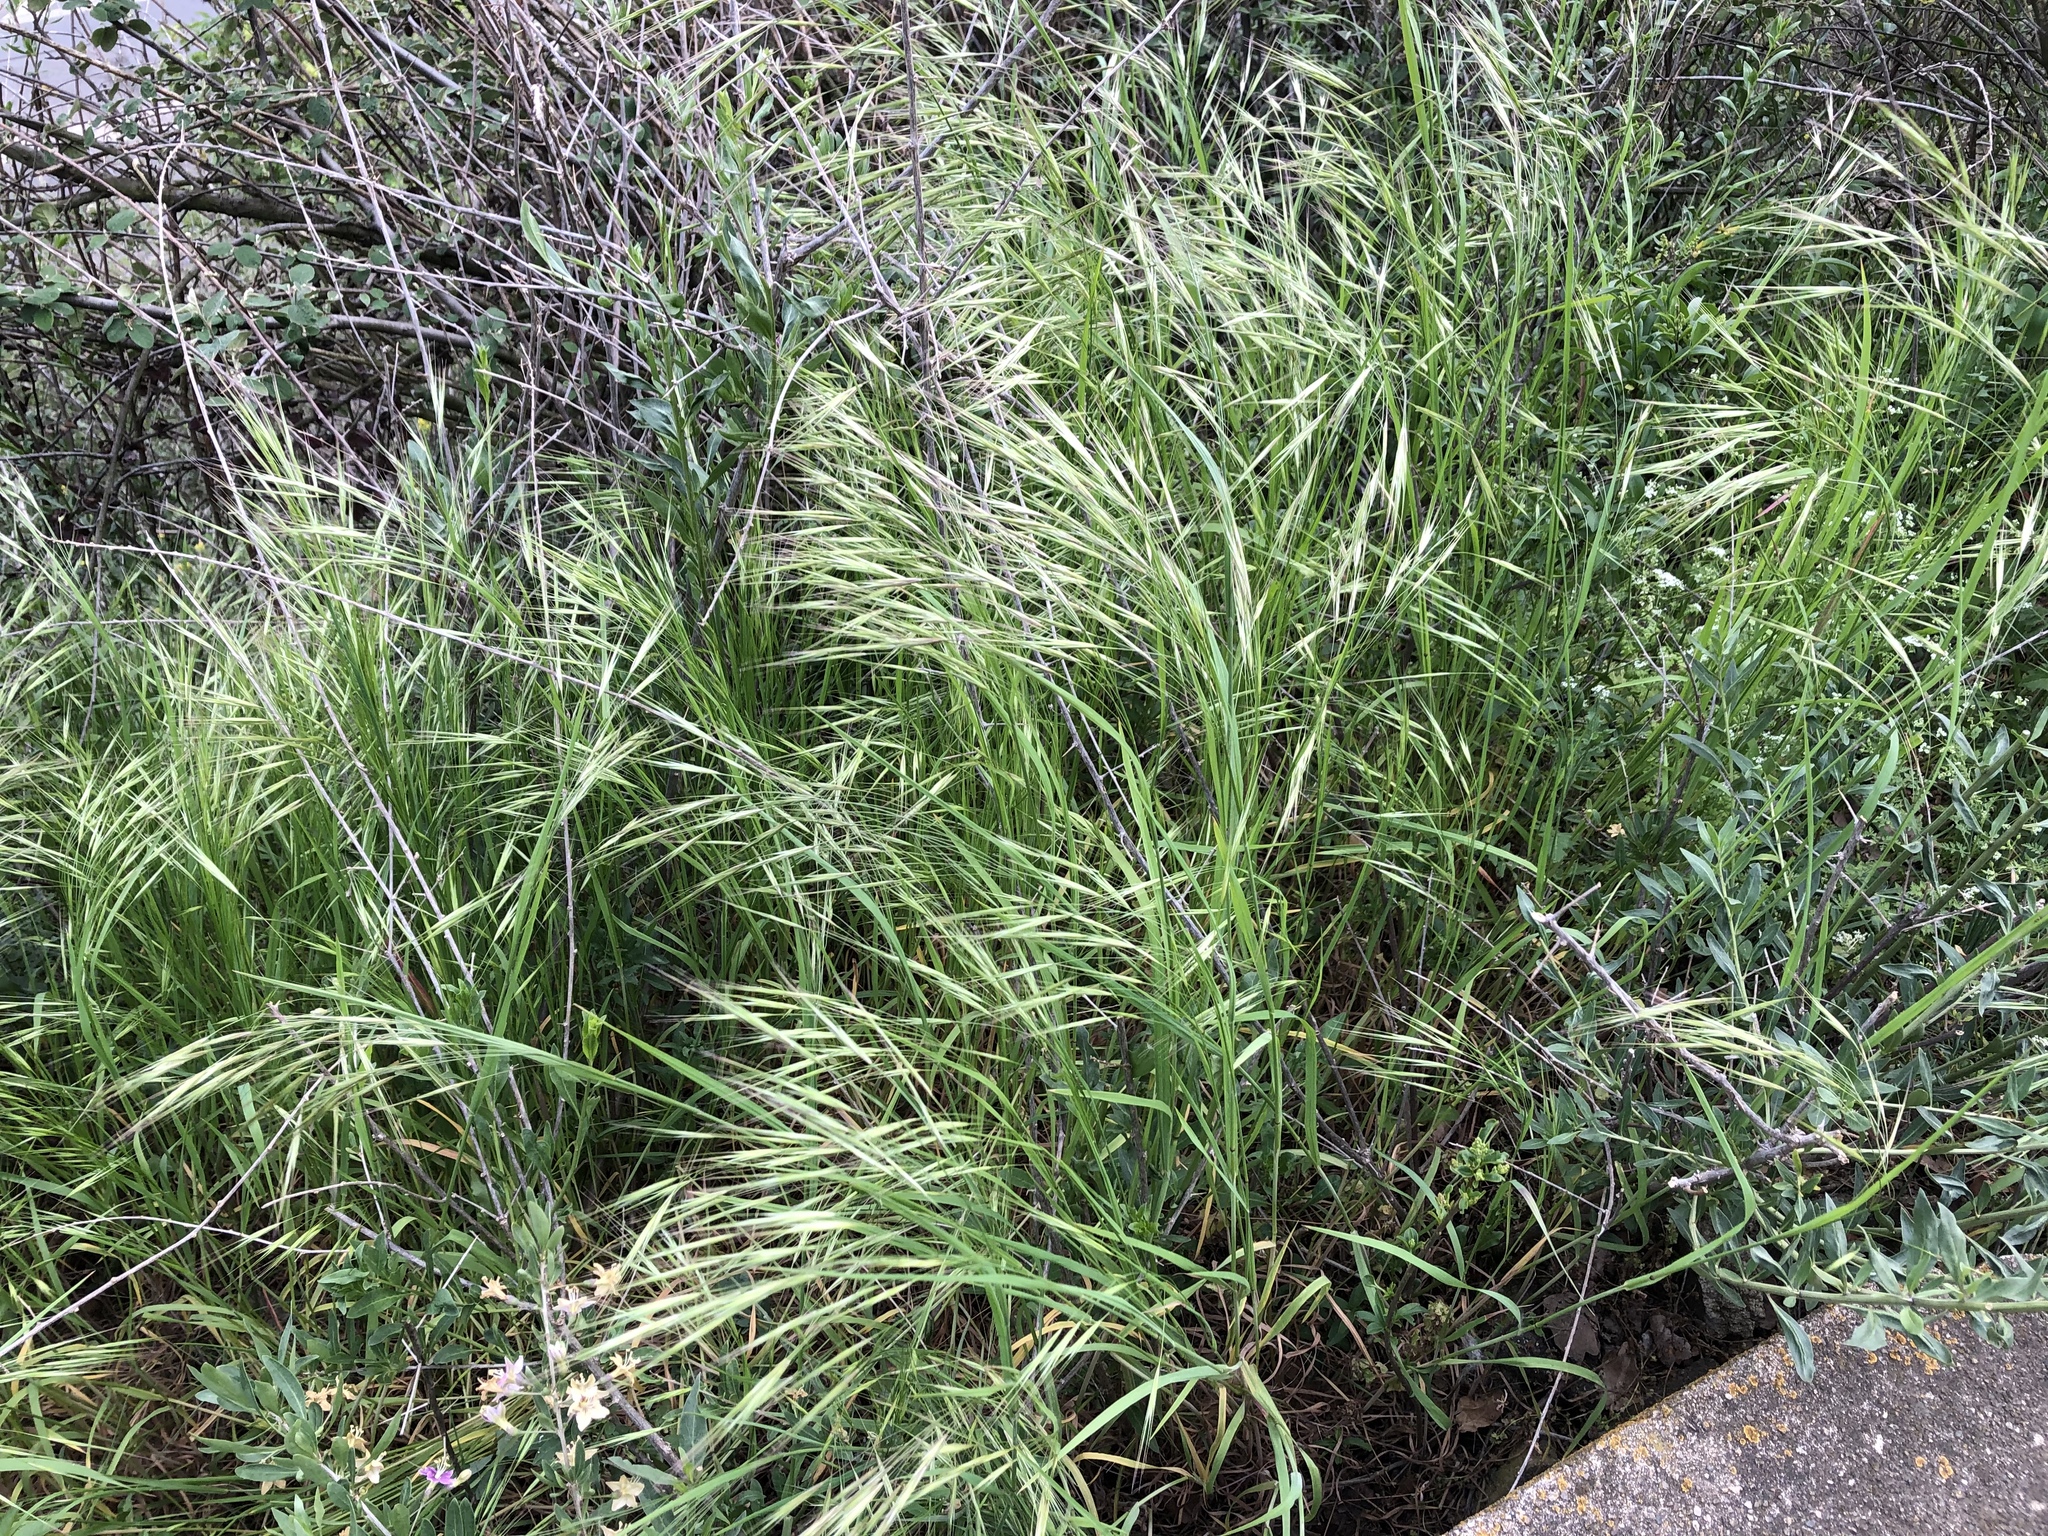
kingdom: Plantae
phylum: Tracheophyta
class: Liliopsida
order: Poales
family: Poaceae
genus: Bromus
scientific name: Bromus sterilis
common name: Poverty brome
